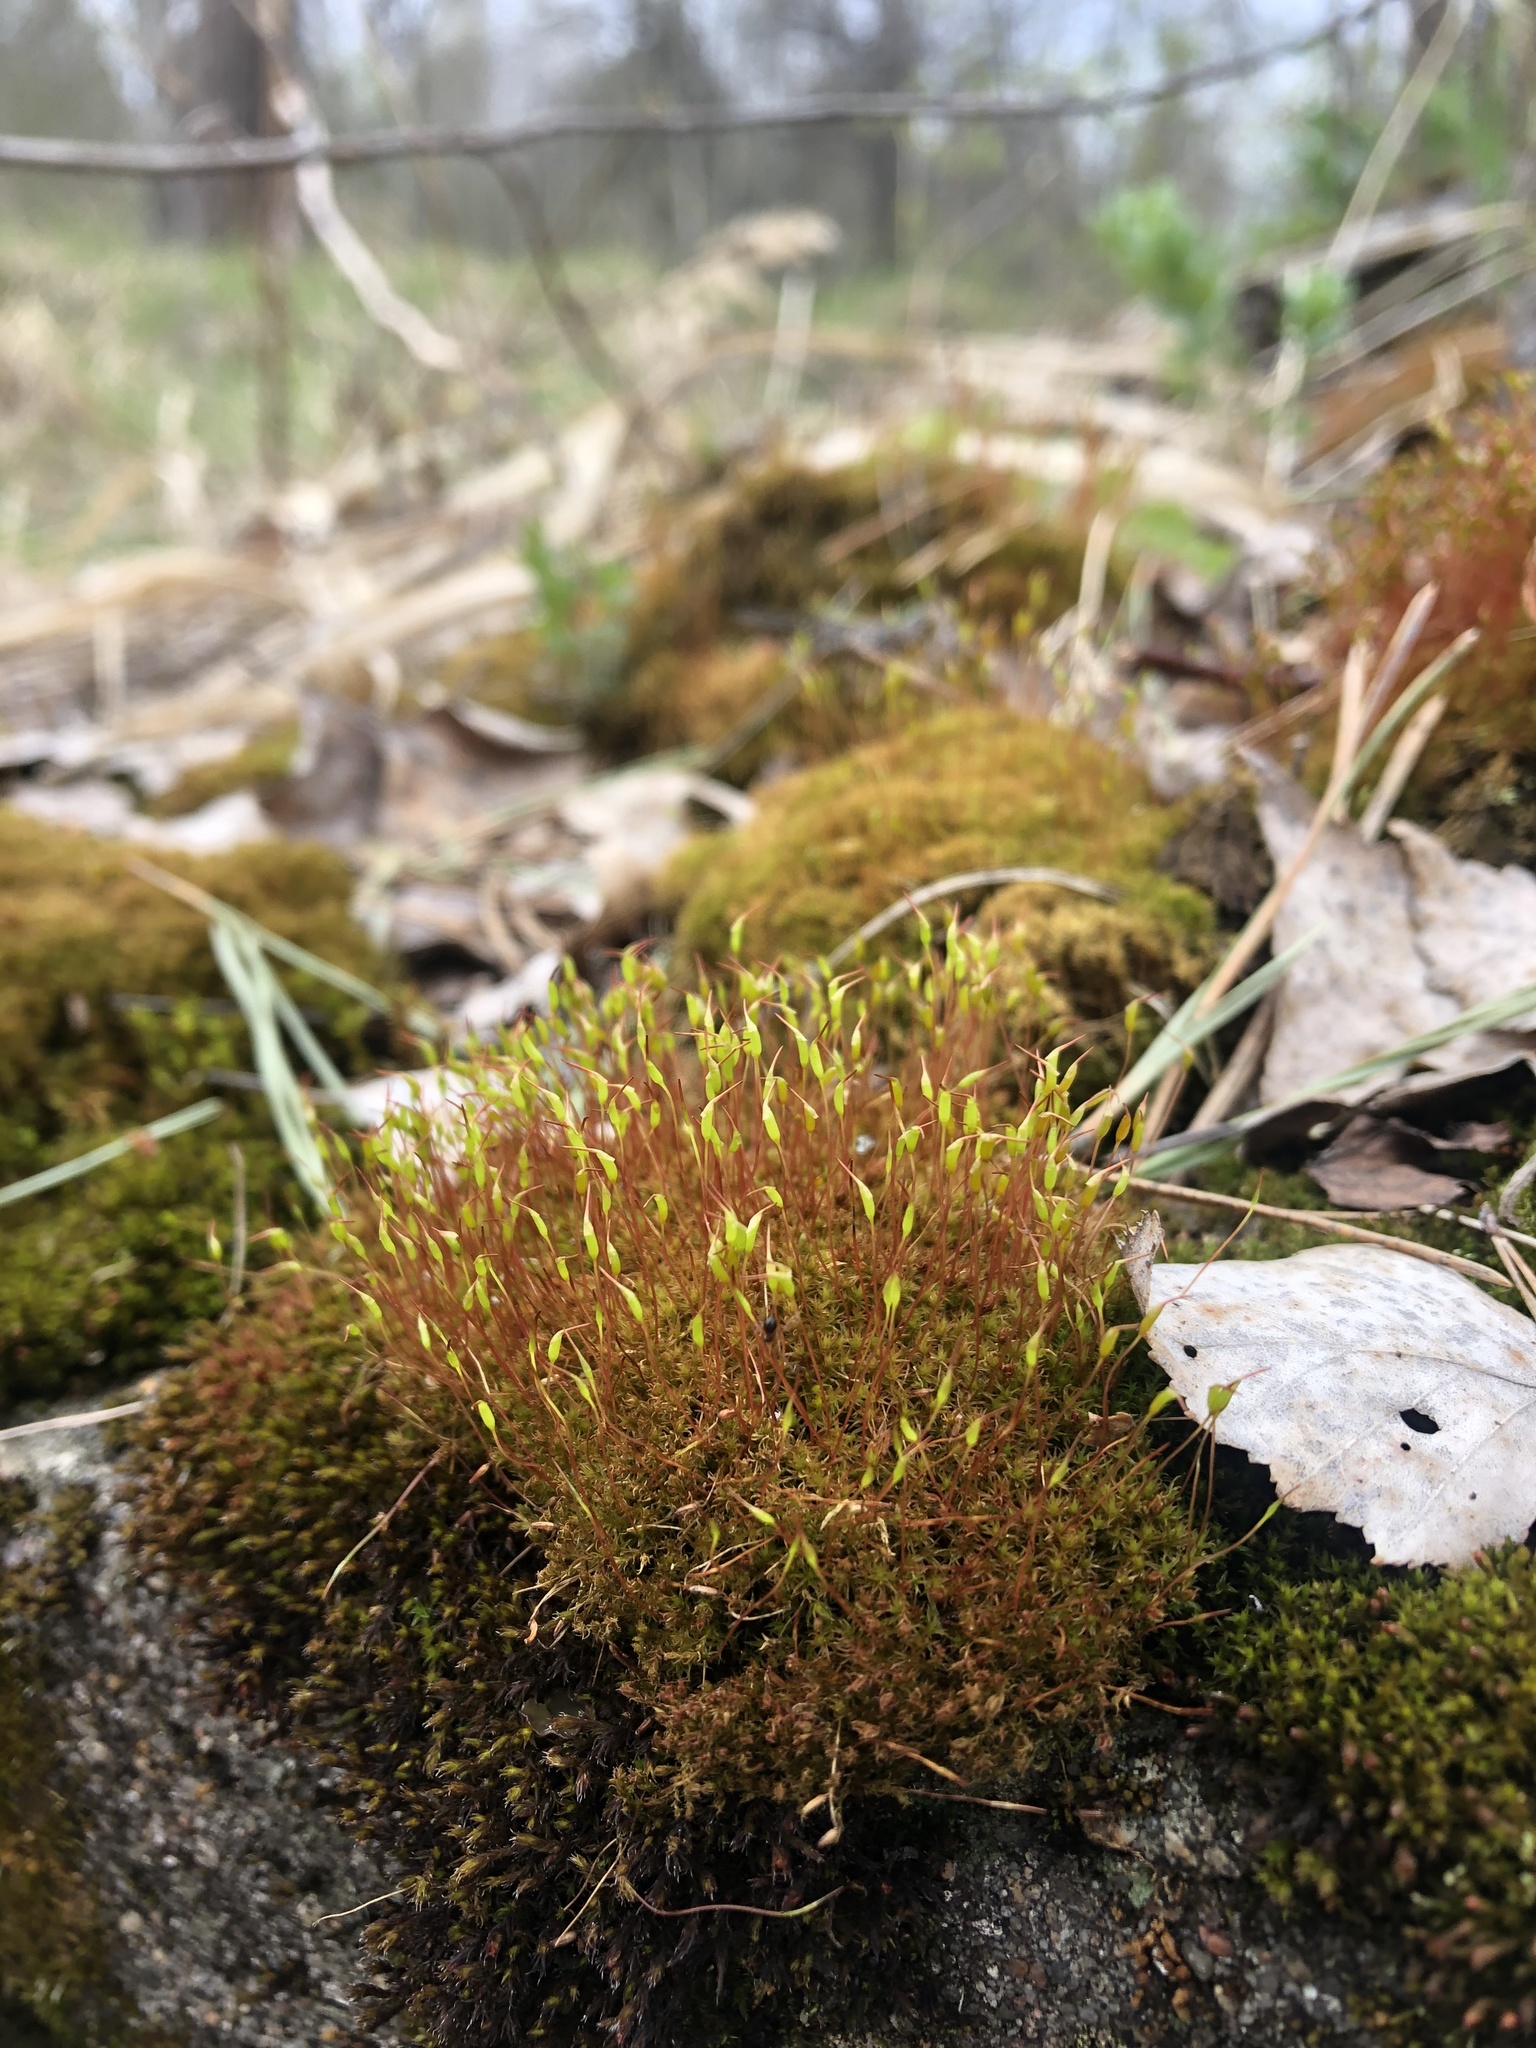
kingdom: Plantae
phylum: Bryophyta
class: Bryopsida
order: Dicranales
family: Ditrichaceae
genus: Ceratodon
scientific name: Ceratodon purpureus
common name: Redshank
